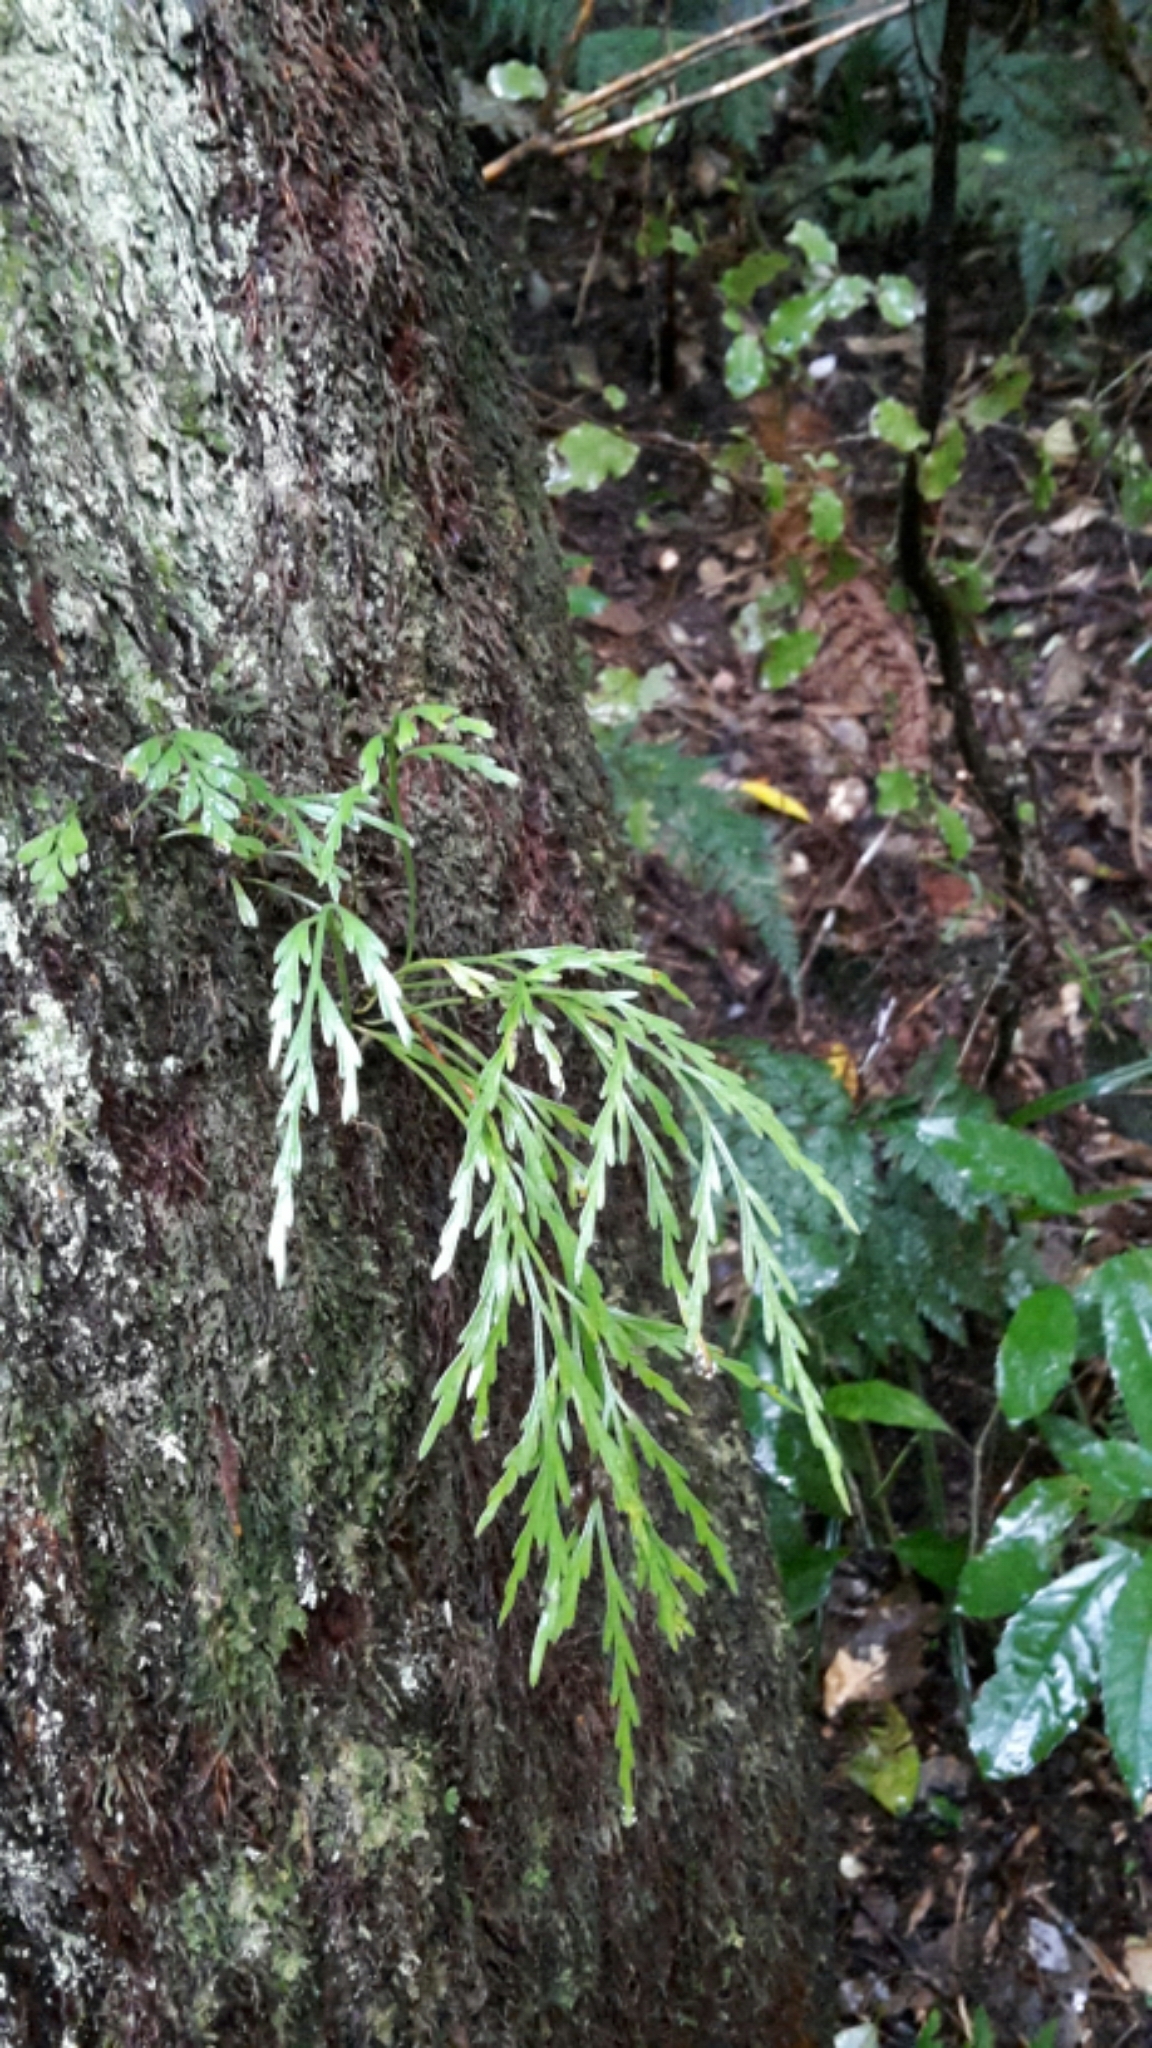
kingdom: Plantae
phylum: Tracheophyta
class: Polypodiopsida
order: Polypodiales
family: Aspleniaceae
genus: Asplenium
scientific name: Asplenium flaccidum
